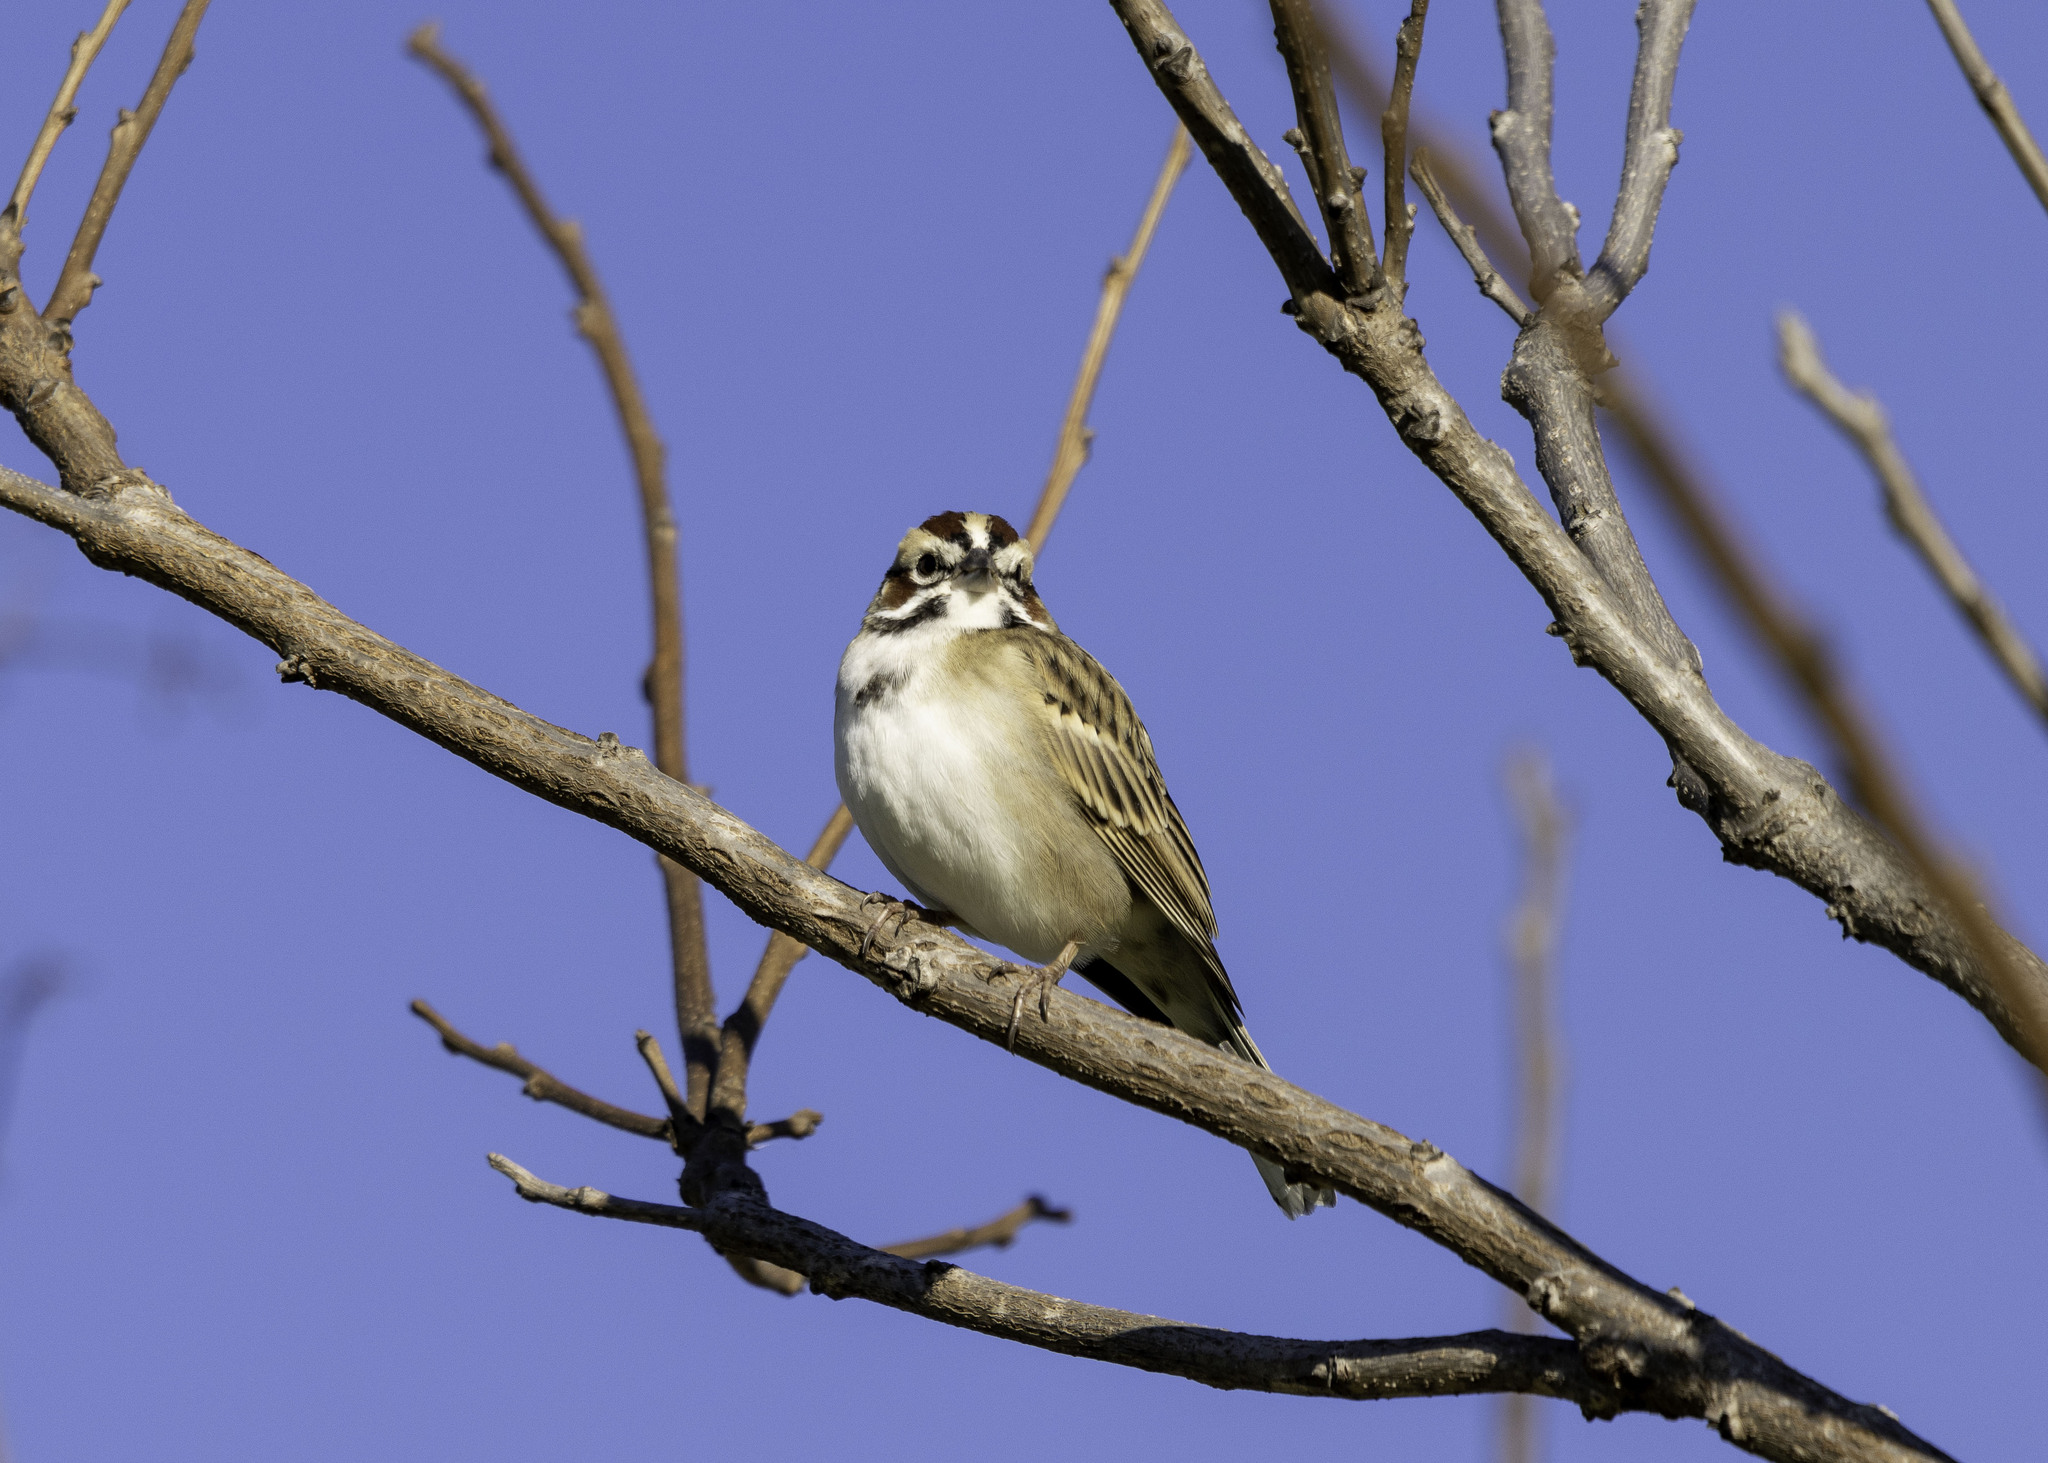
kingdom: Animalia
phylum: Chordata
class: Aves
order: Passeriformes
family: Passerellidae
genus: Chondestes
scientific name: Chondestes grammacus
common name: Lark sparrow
